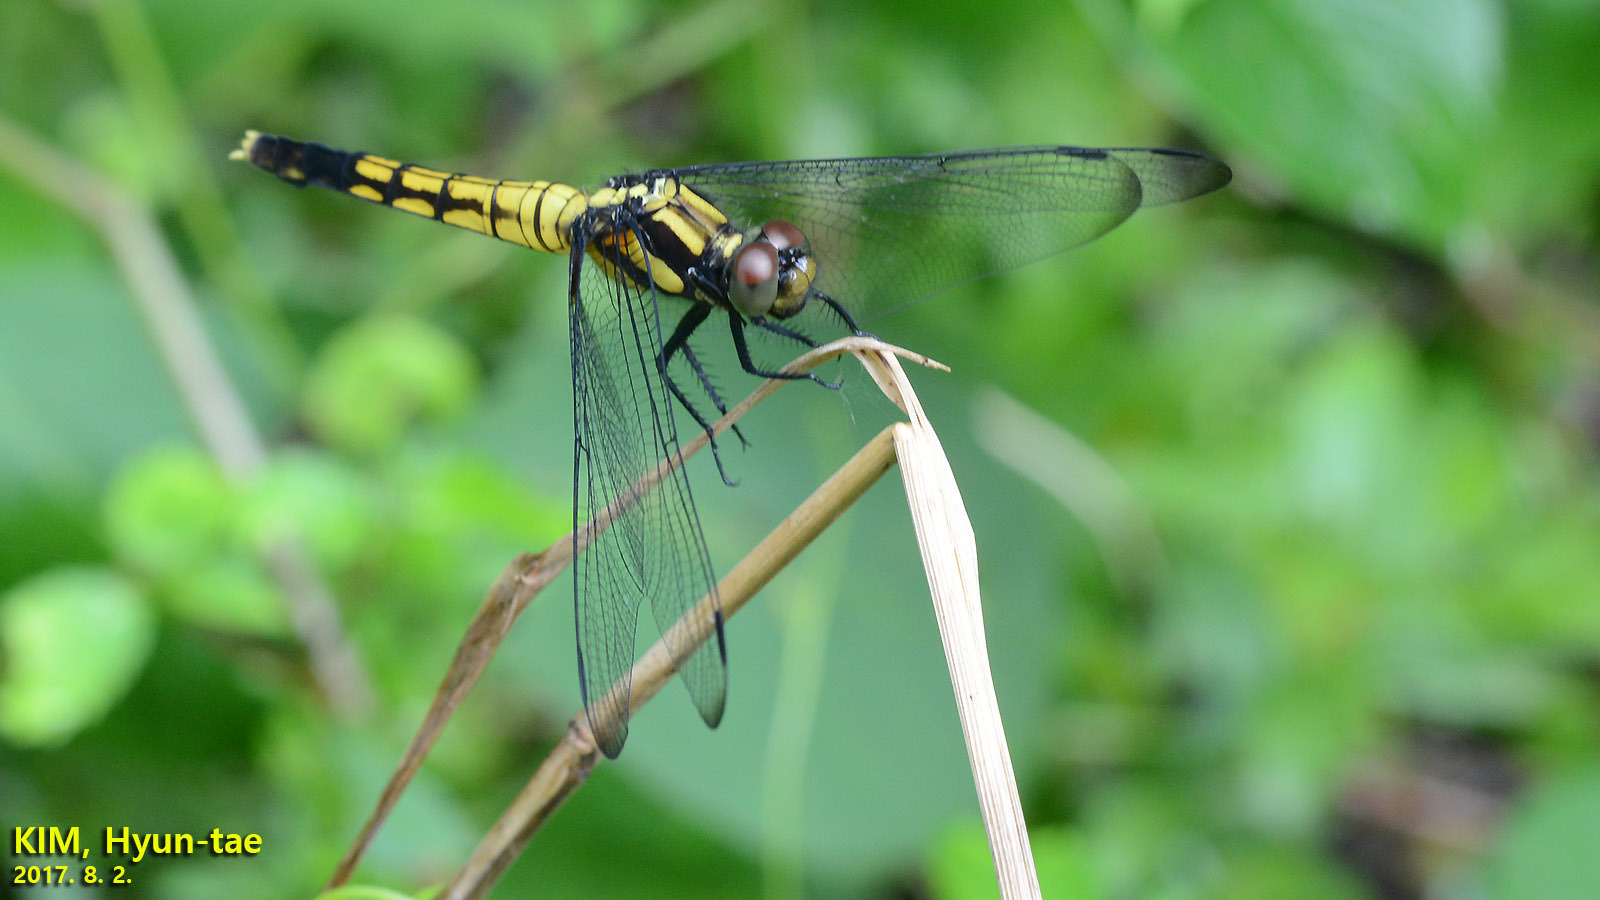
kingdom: Animalia
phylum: Arthropoda
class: Insecta
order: Odonata
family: Libellulidae
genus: Orthetrum
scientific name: Orthetrum melania
